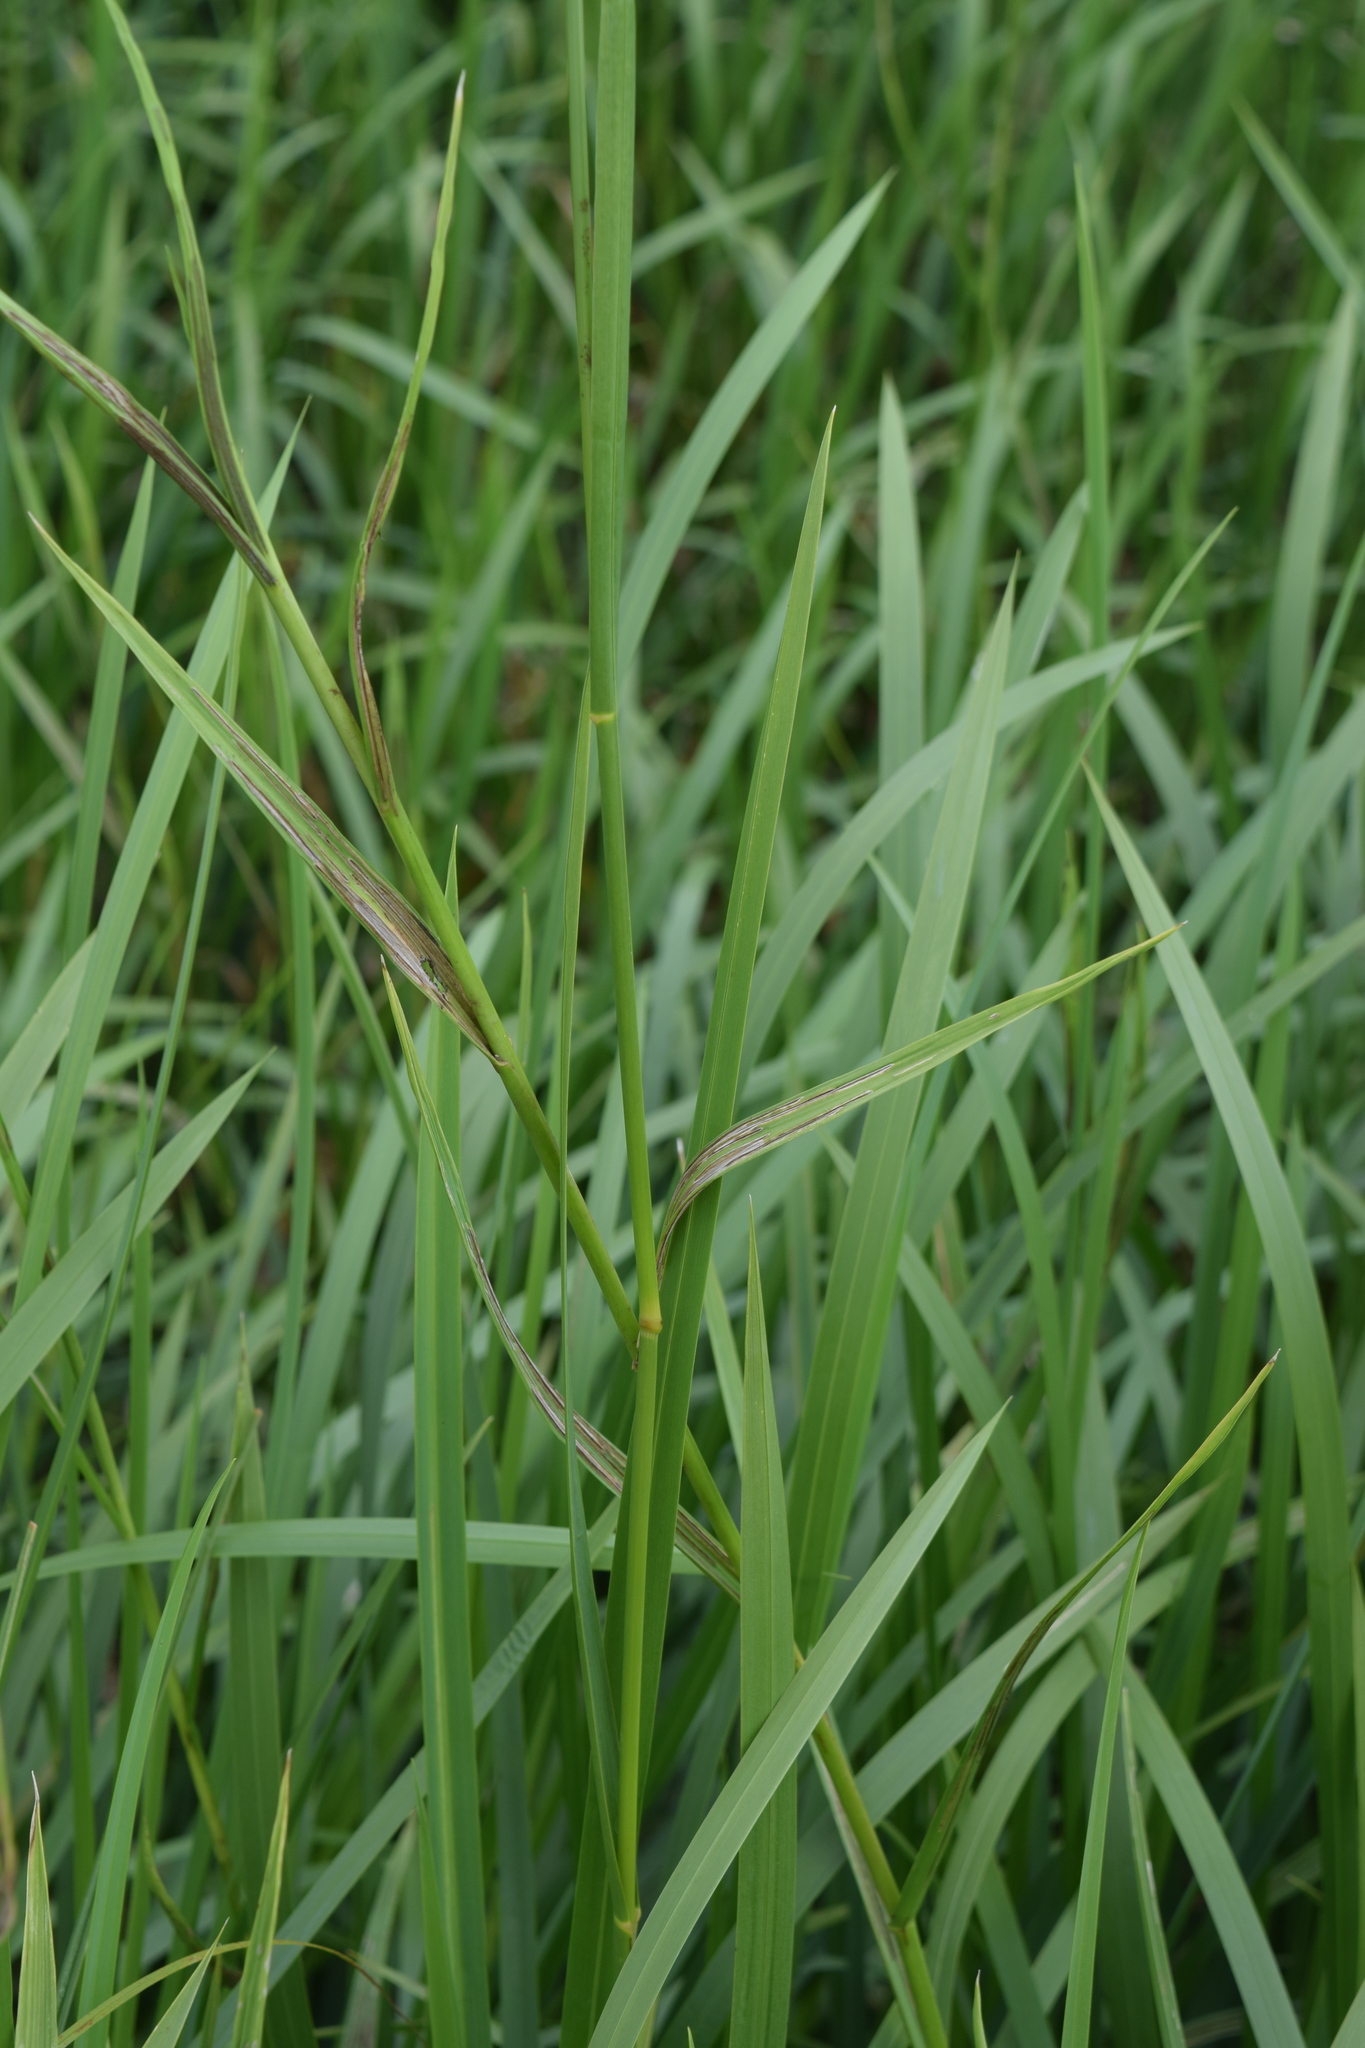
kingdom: Plantae
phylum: Tracheophyta
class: Liliopsida
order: Poales
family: Poaceae
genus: Glyceria
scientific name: Glyceria maxima
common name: Reed mannagrass
